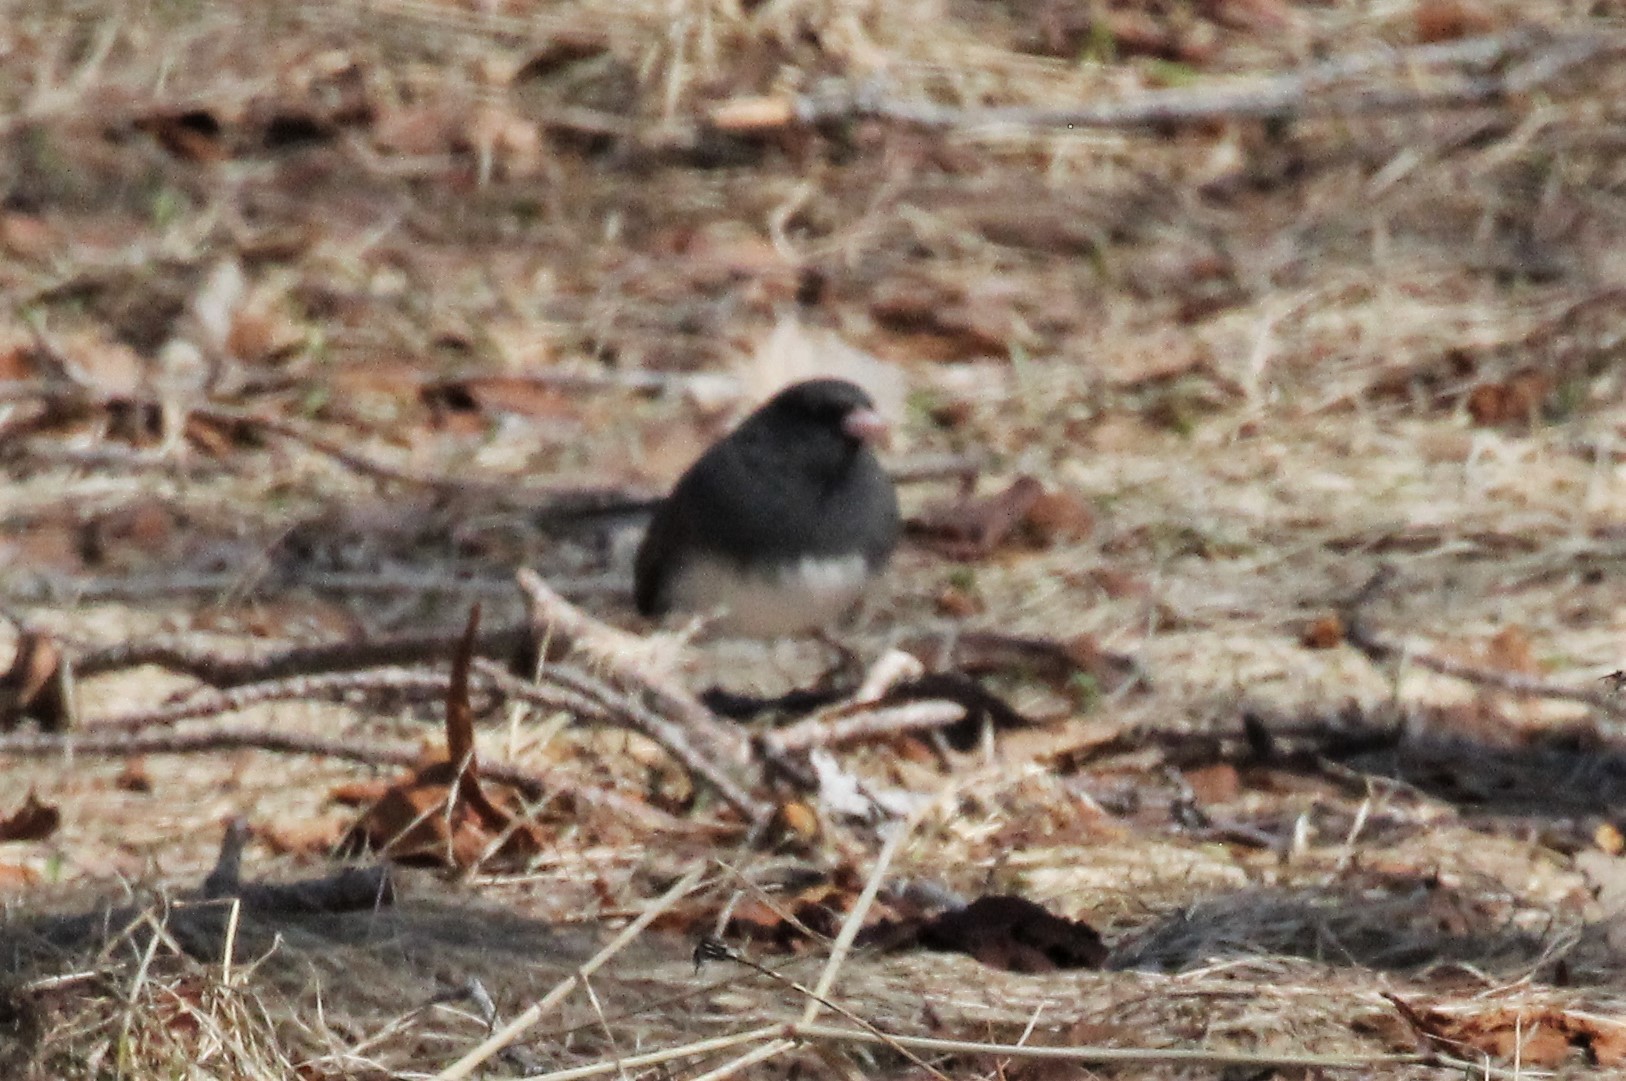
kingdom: Animalia
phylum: Chordata
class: Aves
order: Passeriformes
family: Passerellidae
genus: Junco
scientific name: Junco hyemalis
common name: Dark-eyed junco
